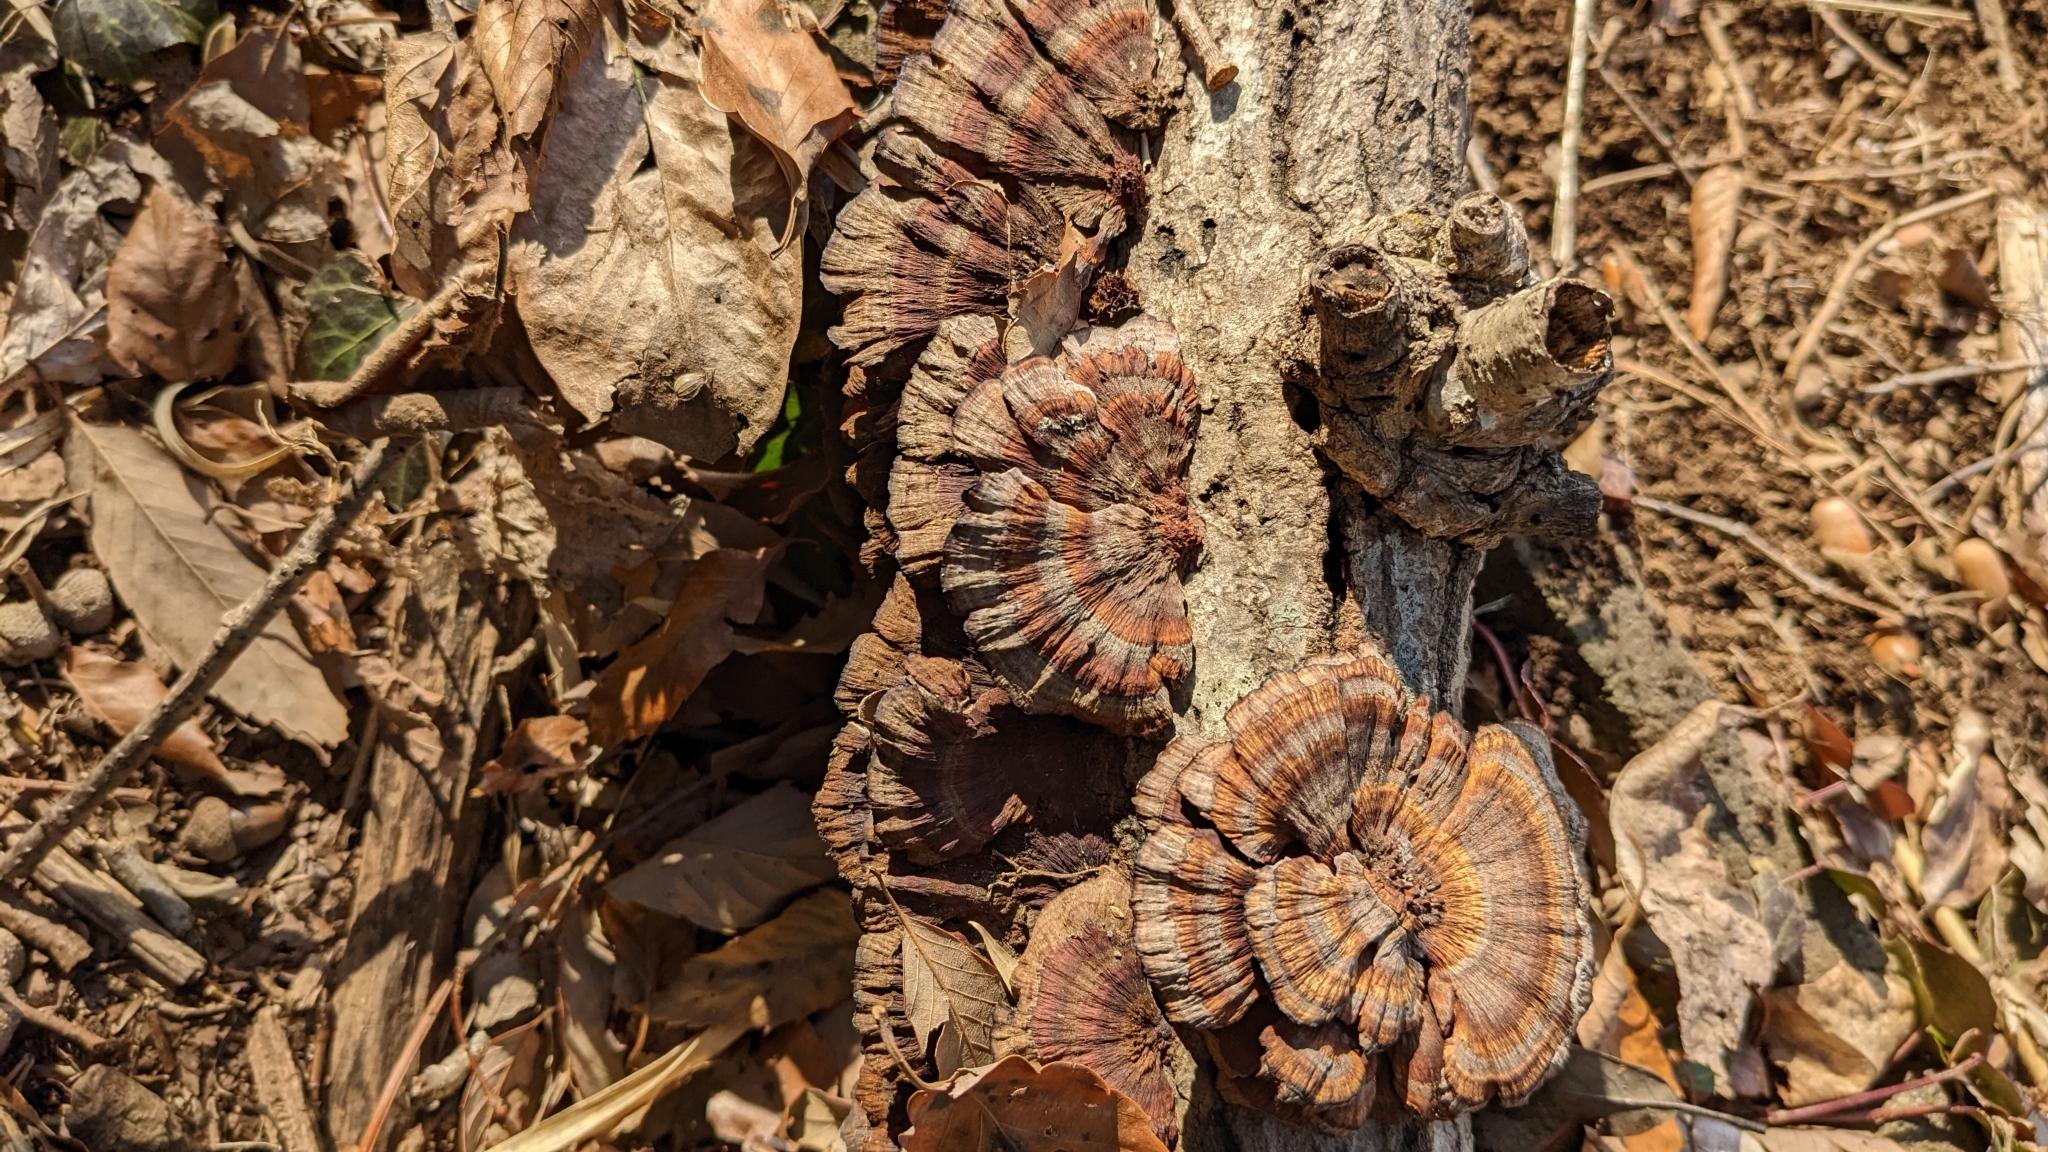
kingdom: Fungi
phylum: Basidiomycota
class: Agaricomycetes
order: Polyporales
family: Polyporaceae
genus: Daedaleopsis
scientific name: Daedaleopsis tricolor
